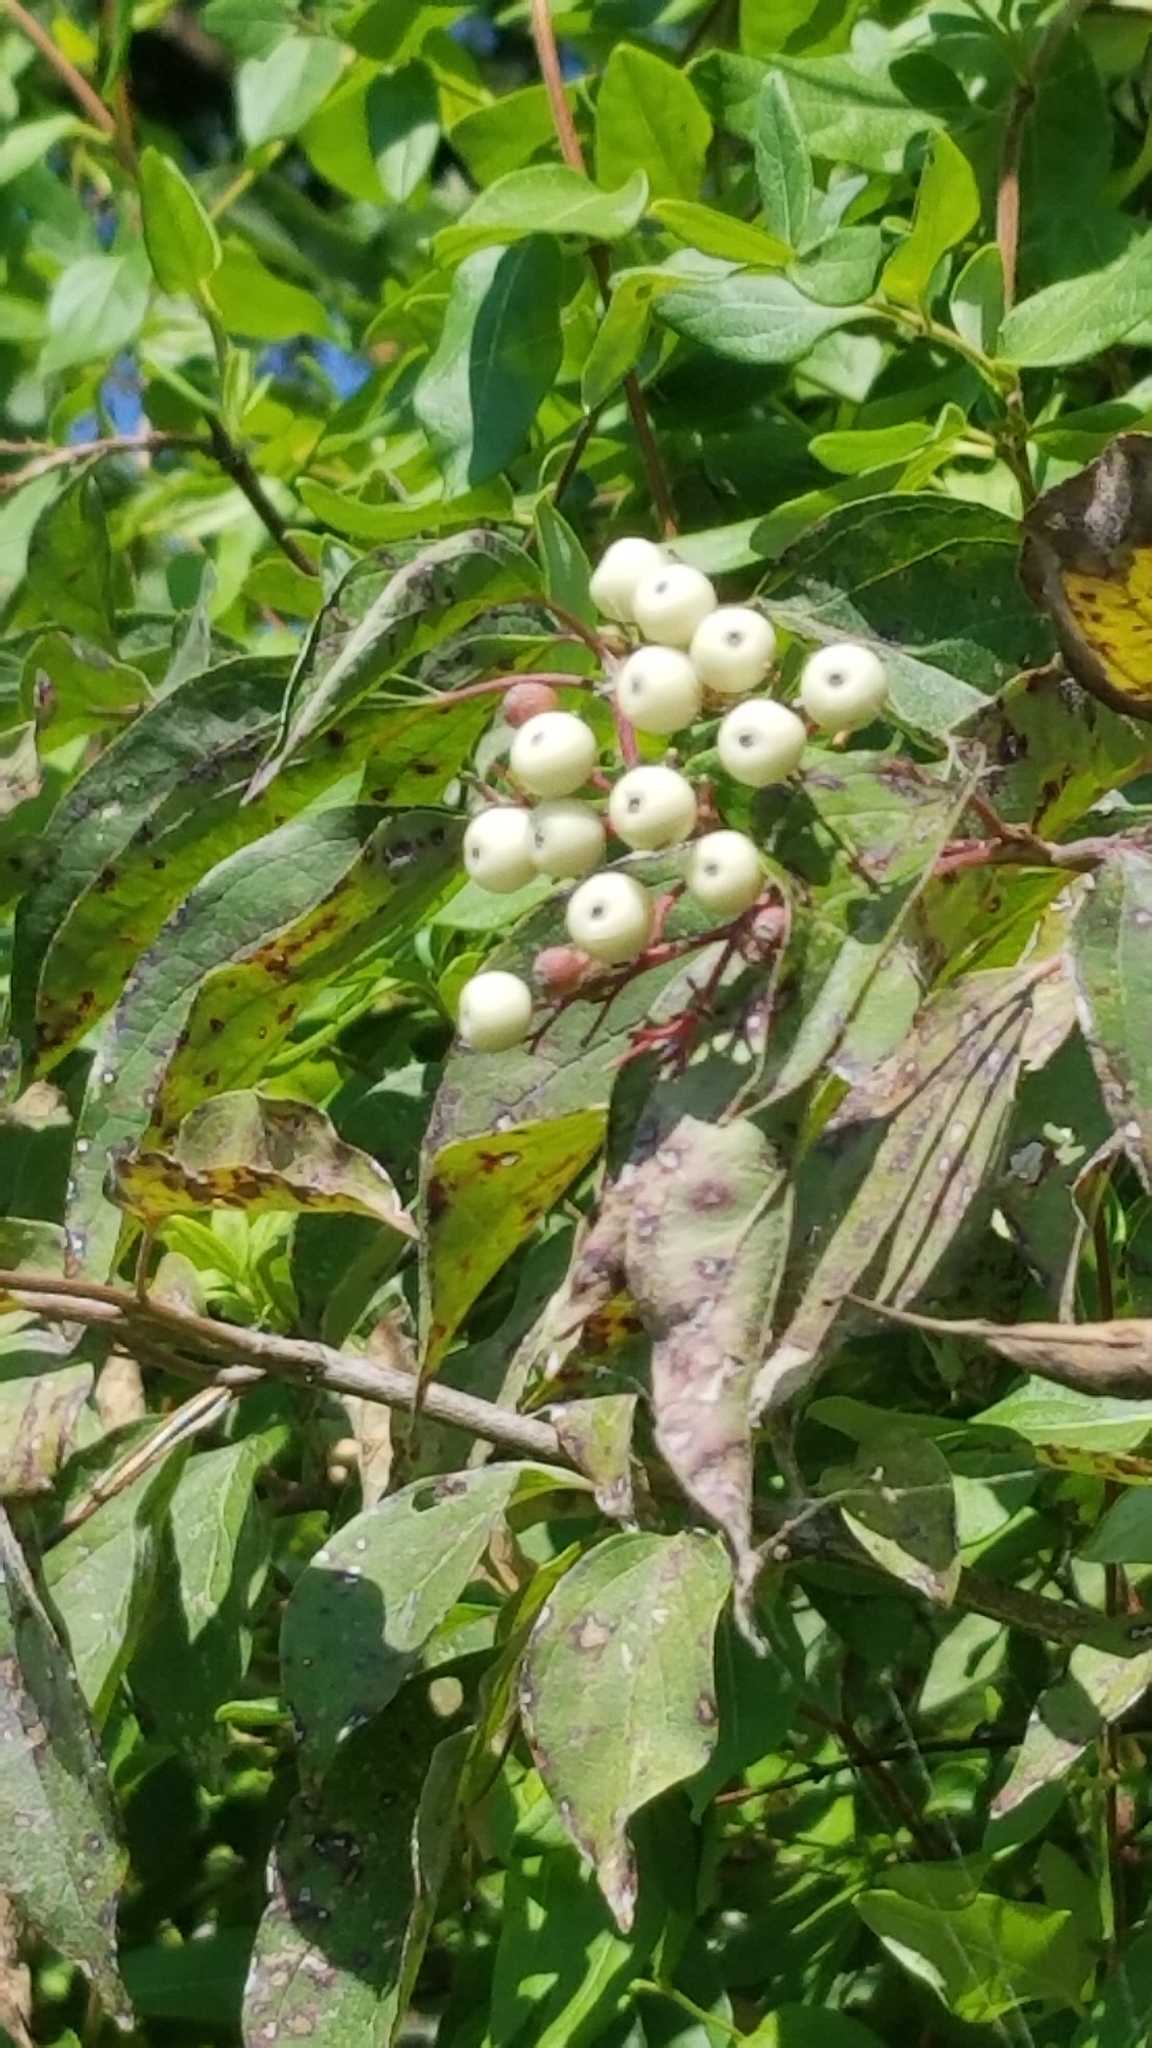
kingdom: Plantae
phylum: Tracheophyta
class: Magnoliopsida
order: Cornales
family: Cornaceae
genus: Cornus
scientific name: Cornus drummondii
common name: Rough-leaf dogwood
